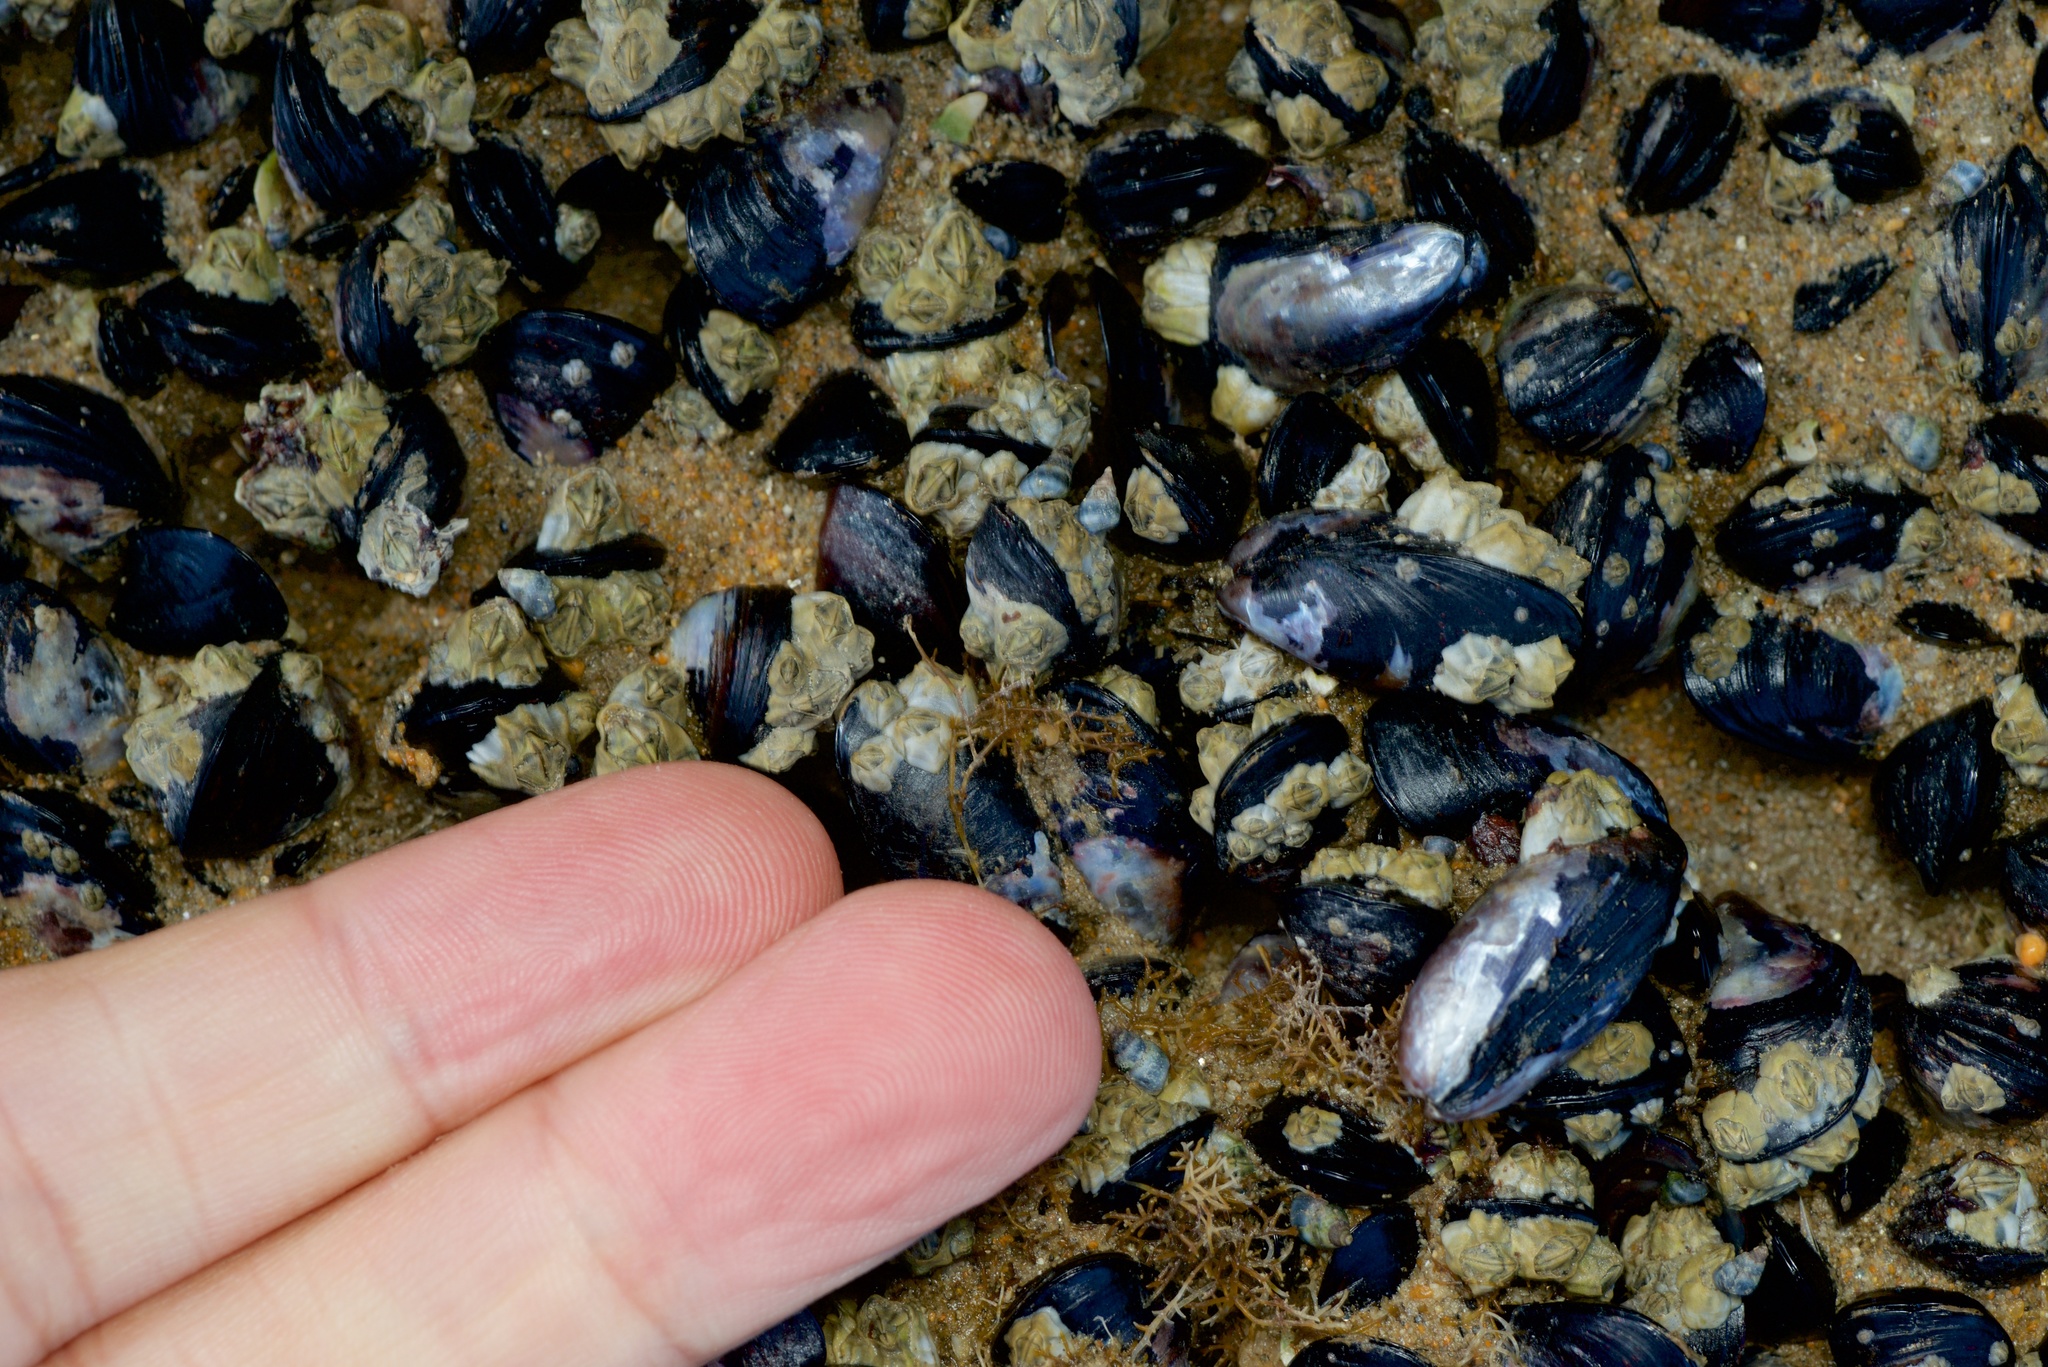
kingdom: Animalia
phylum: Mollusca
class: Bivalvia
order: Mytilida
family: Mytilidae
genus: Xenostrobus
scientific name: Xenostrobus neozelanicus
